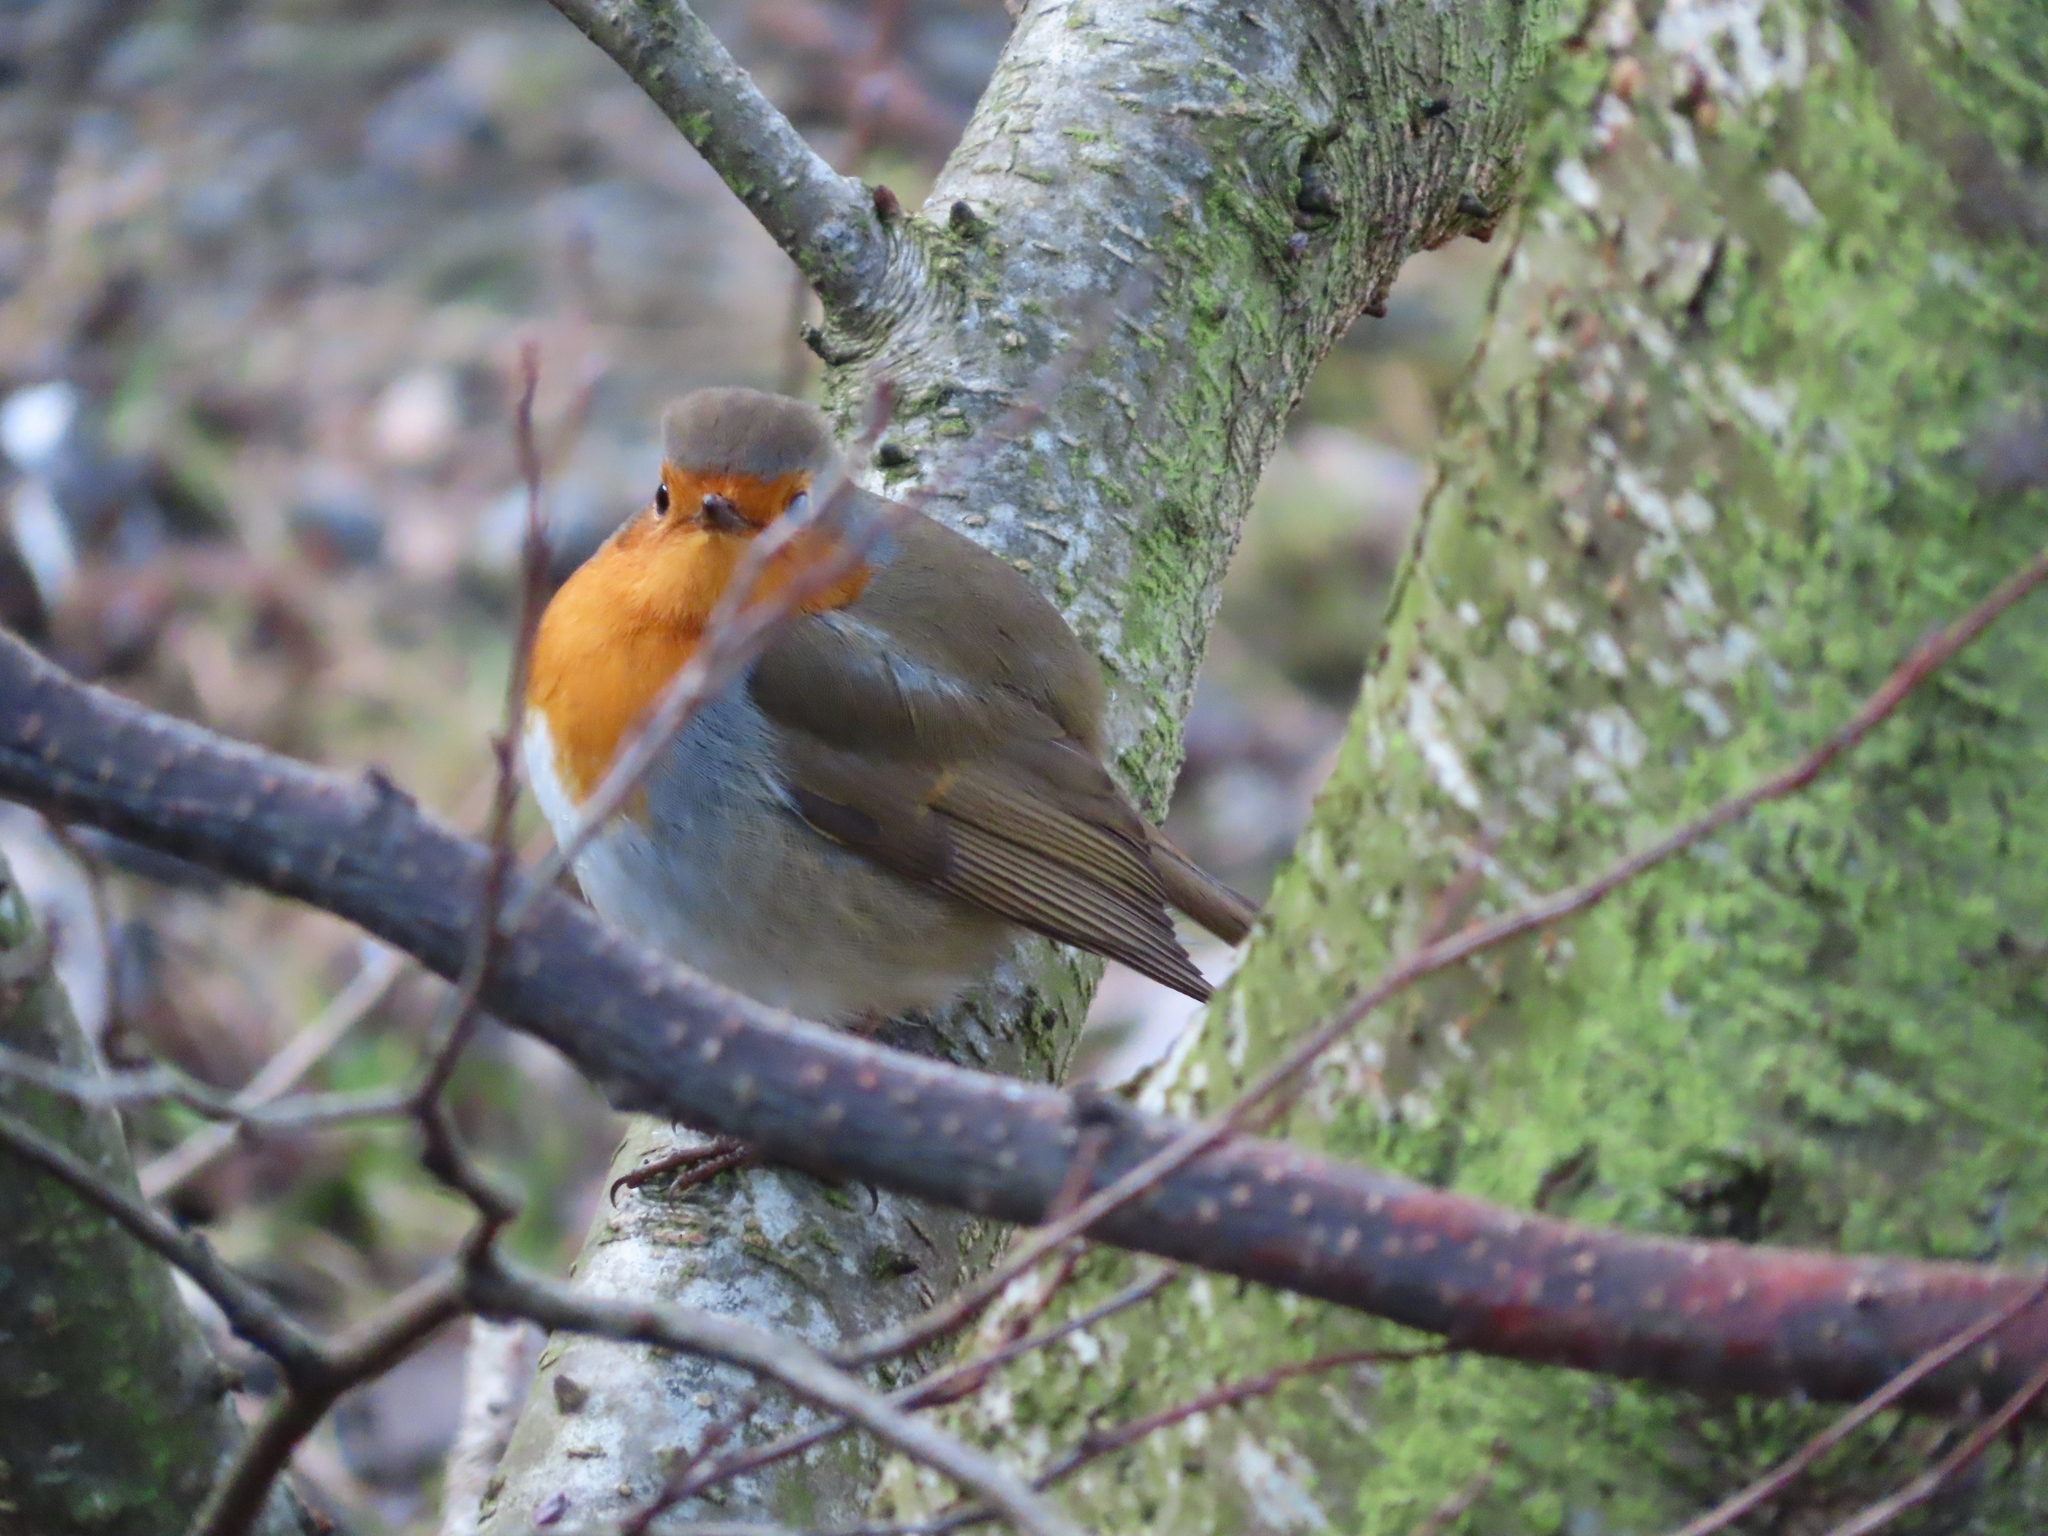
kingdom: Animalia
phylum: Chordata
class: Aves
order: Passeriformes
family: Muscicapidae
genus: Erithacus
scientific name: Erithacus rubecula
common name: European robin
